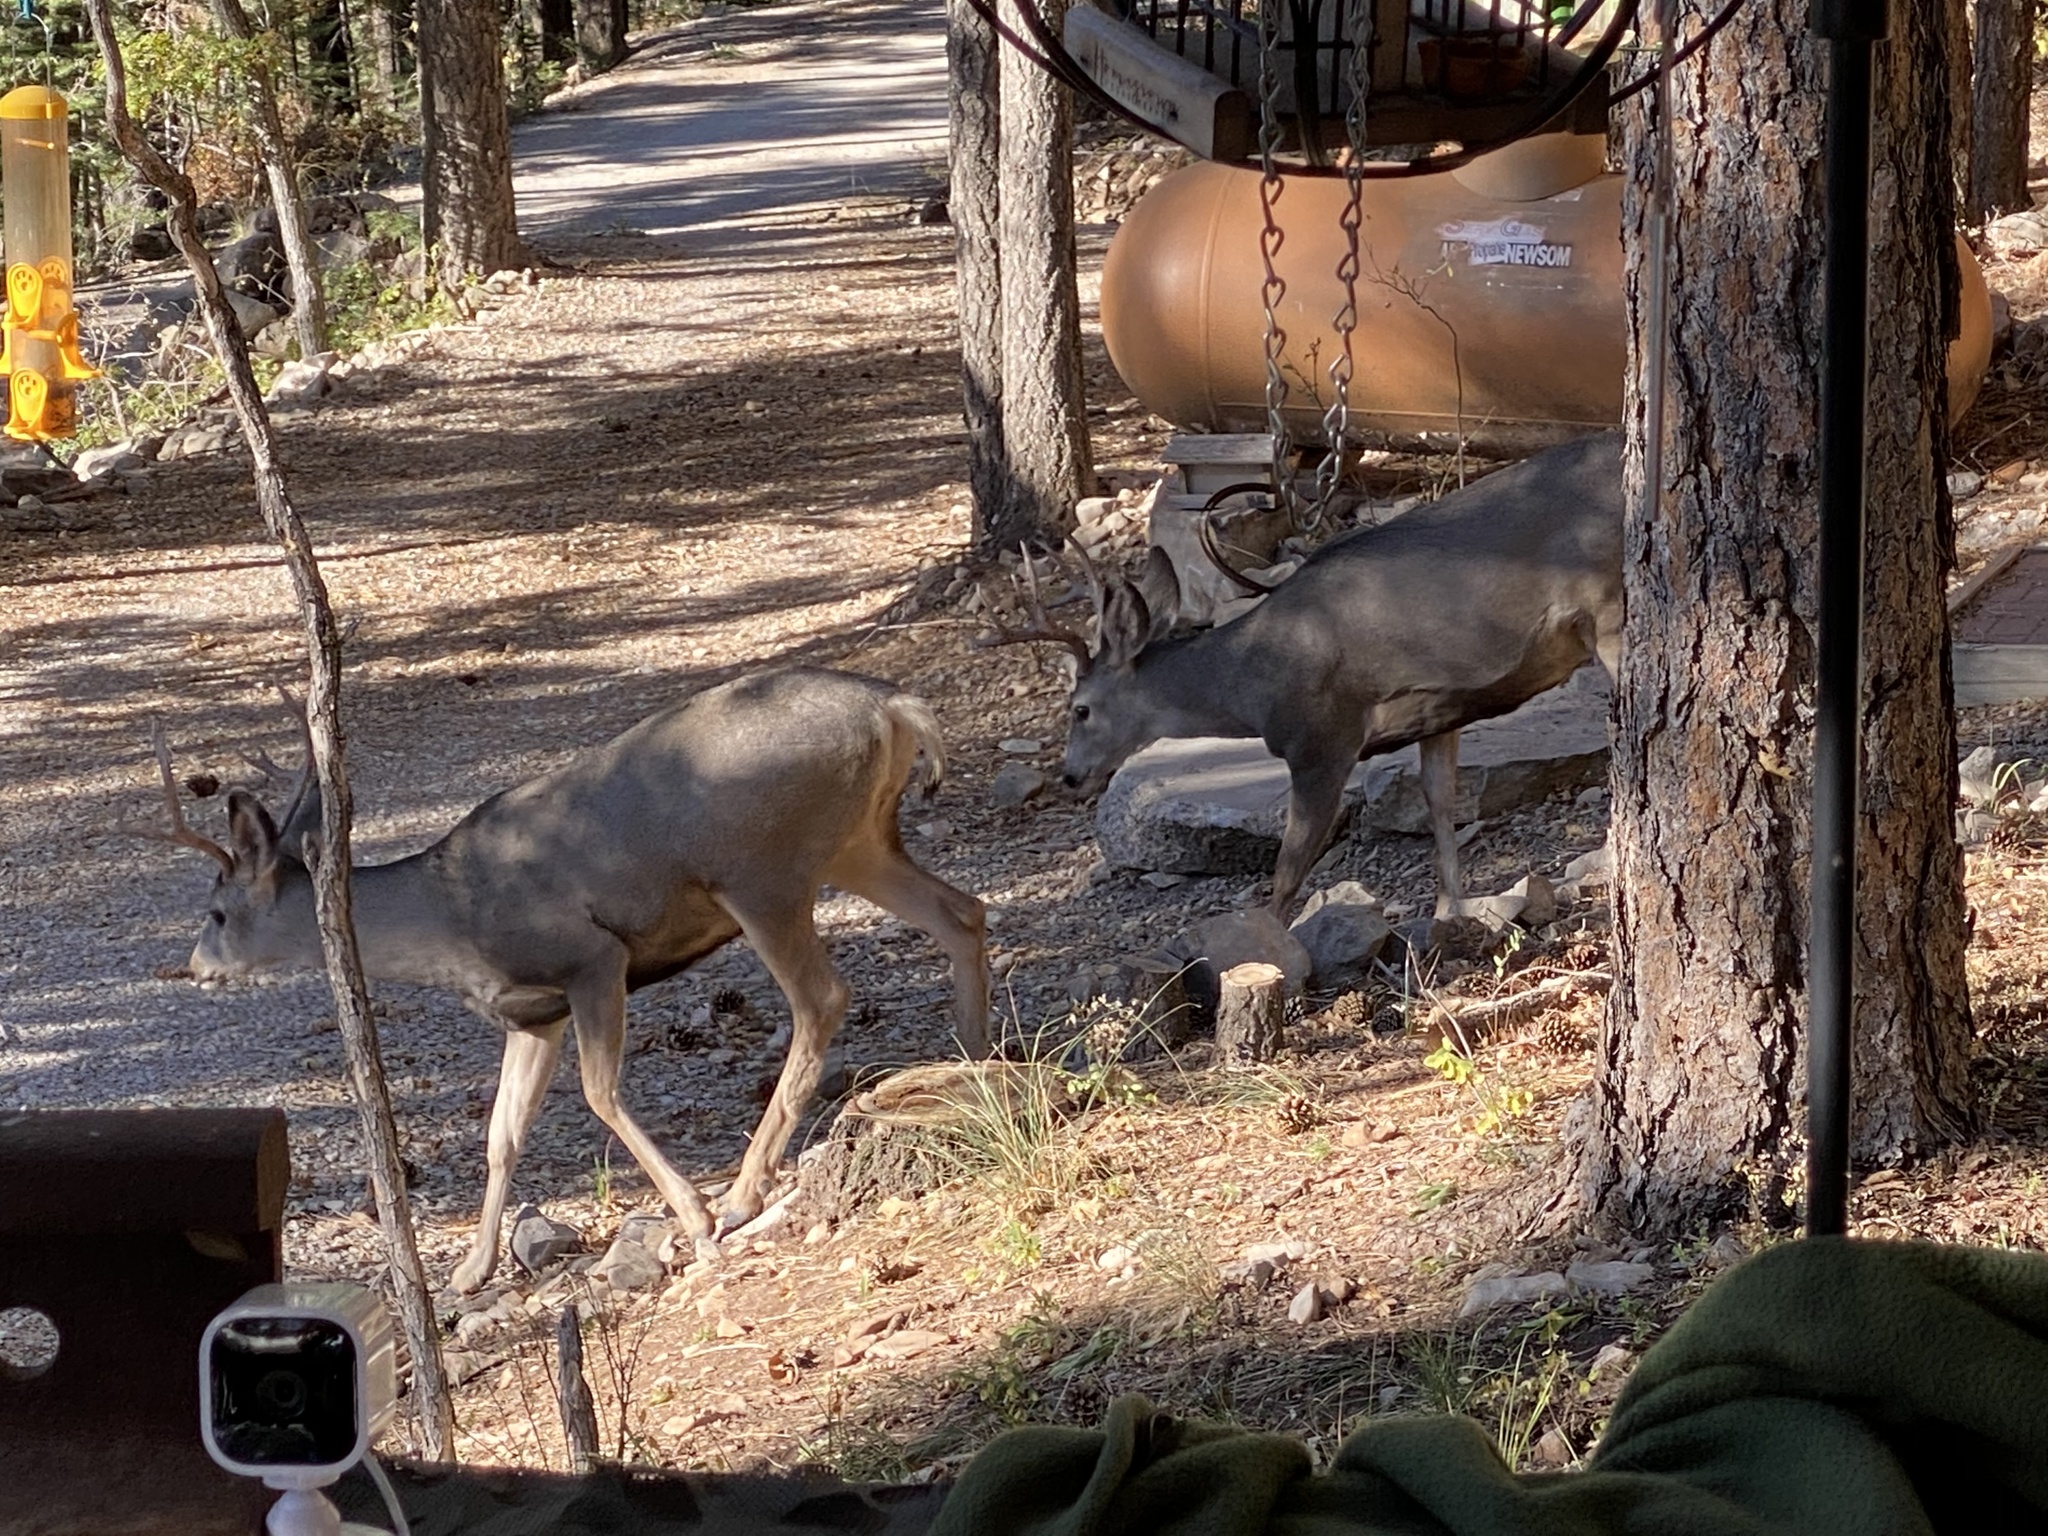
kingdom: Animalia
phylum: Chordata
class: Mammalia
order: Artiodactyla
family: Cervidae
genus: Odocoileus
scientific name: Odocoileus hemionus
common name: Mule deer
